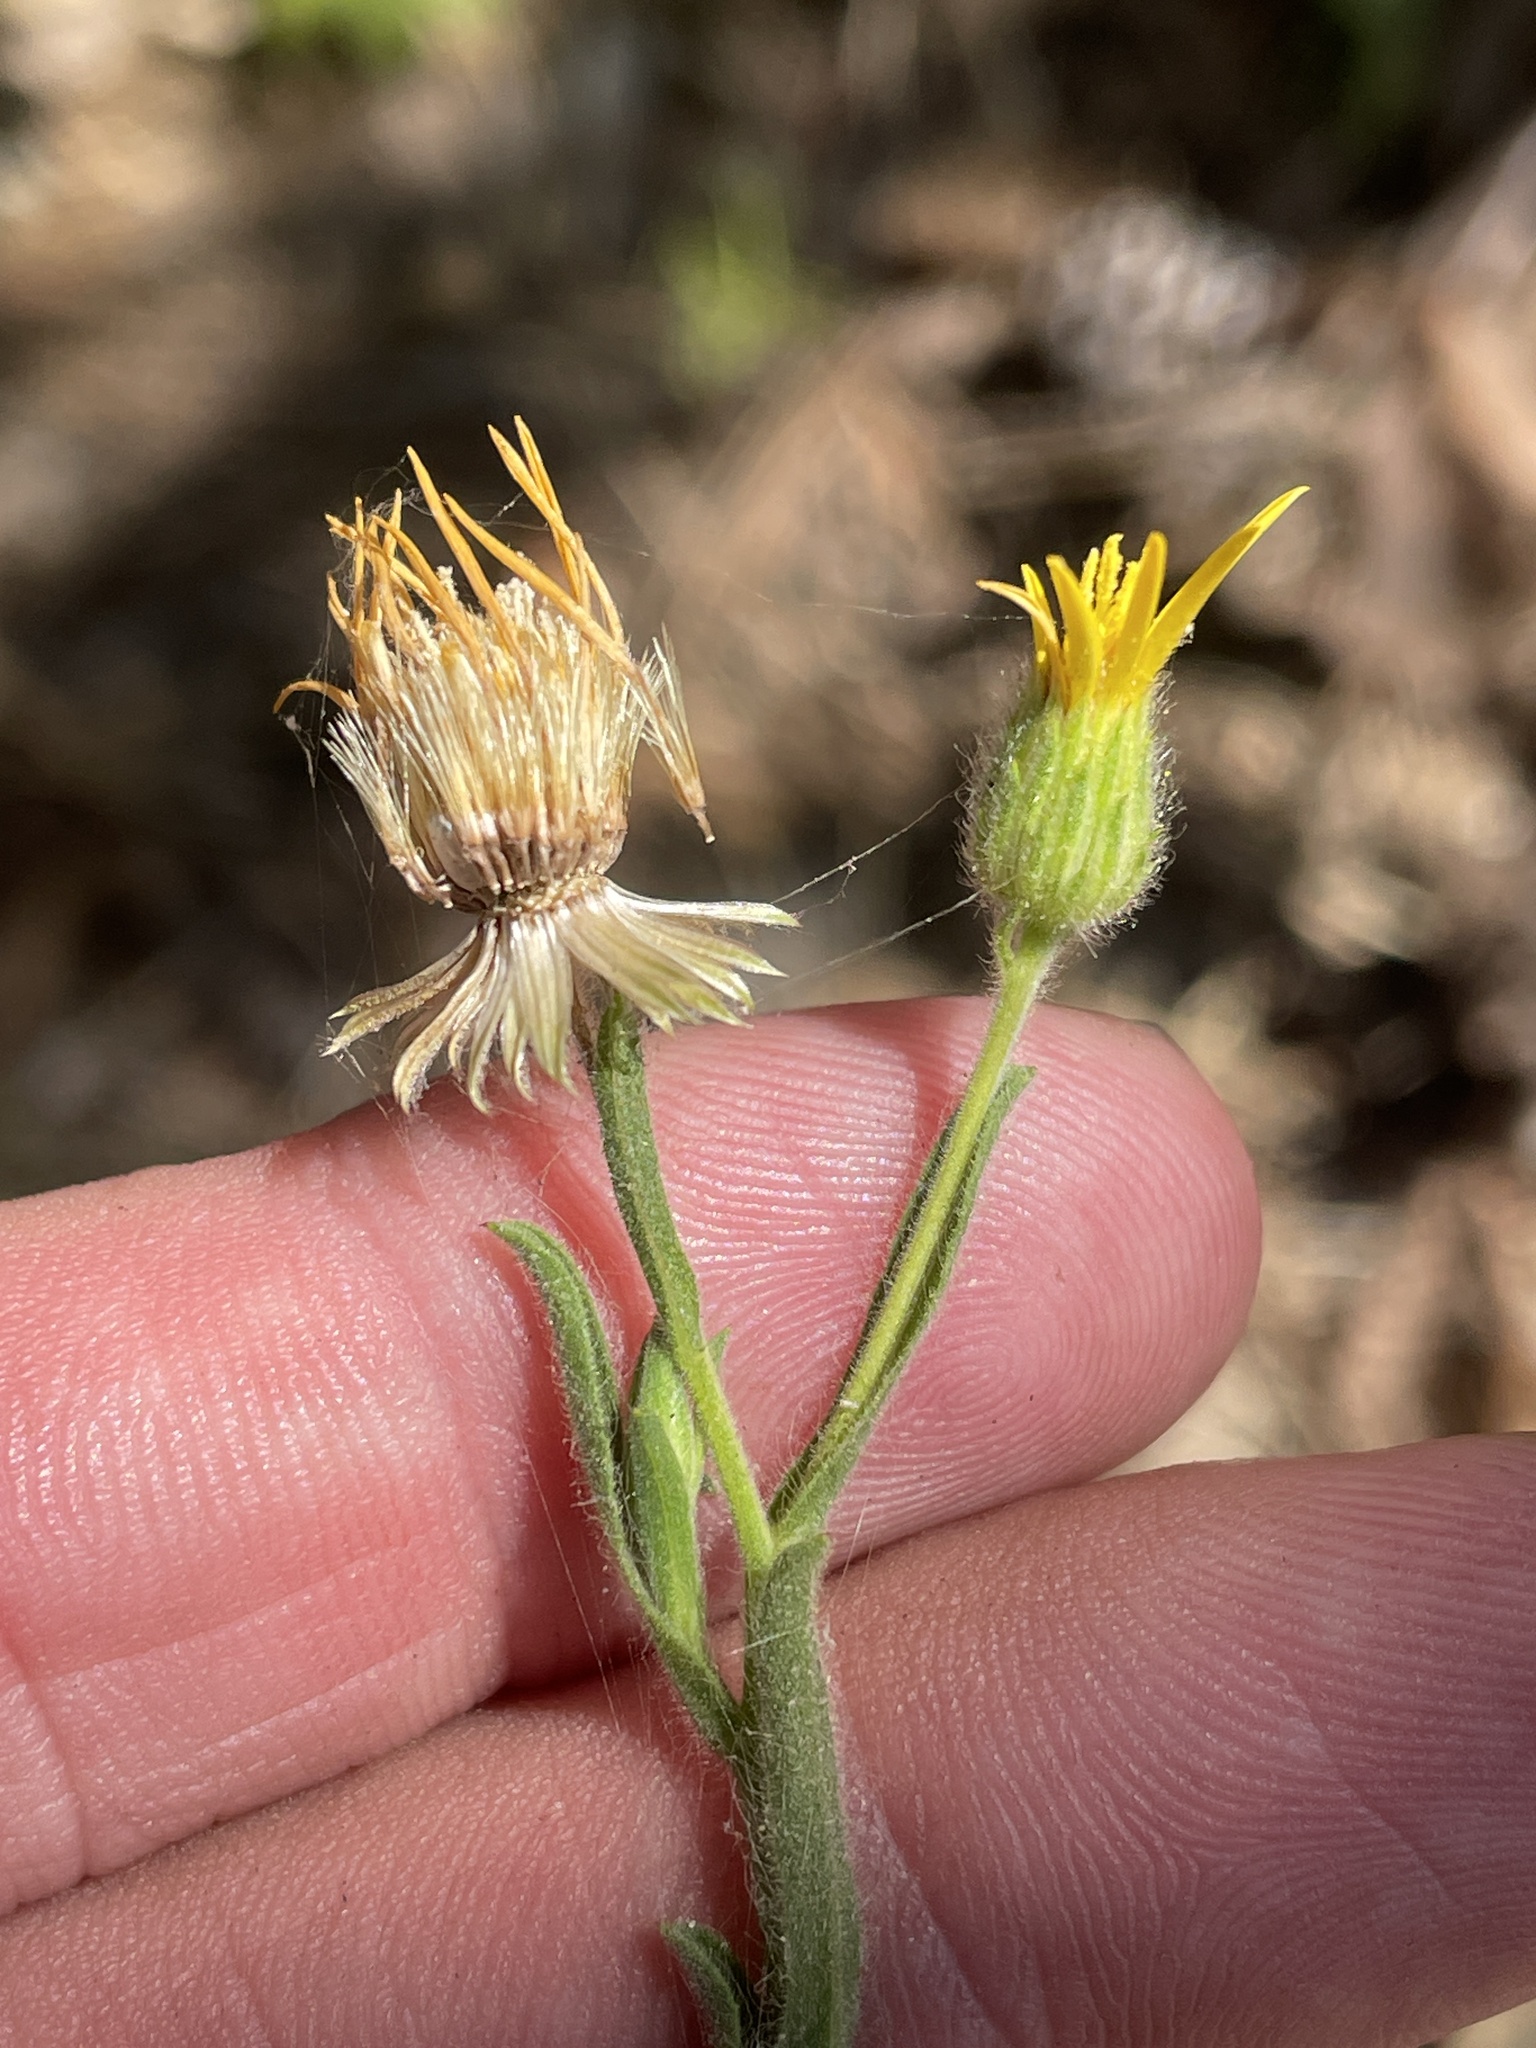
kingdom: Plantae
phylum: Tracheophyta
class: Magnoliopsida
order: Asterales
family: Asteraceae
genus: Bradburia
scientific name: Bradburia pilosa
